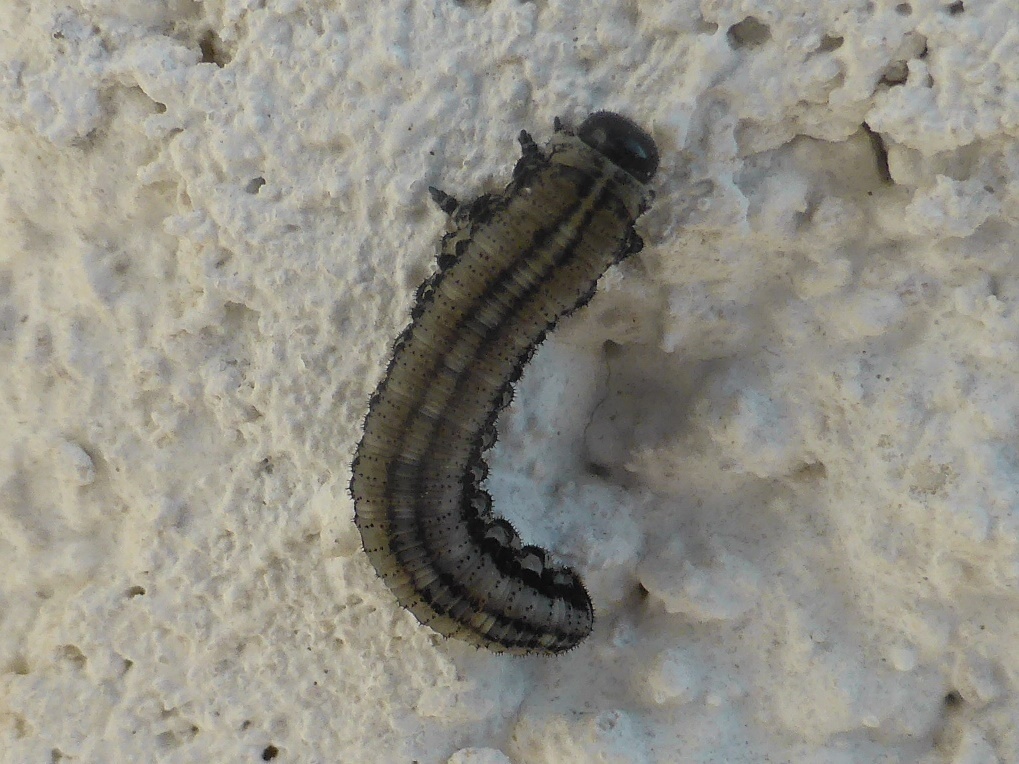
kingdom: Animalia
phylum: Arthropoda
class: Insecta
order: Hymenoptera
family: Diprionidae
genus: Neodiprion
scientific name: Neodiprion sertifer
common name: European pine sawfly
